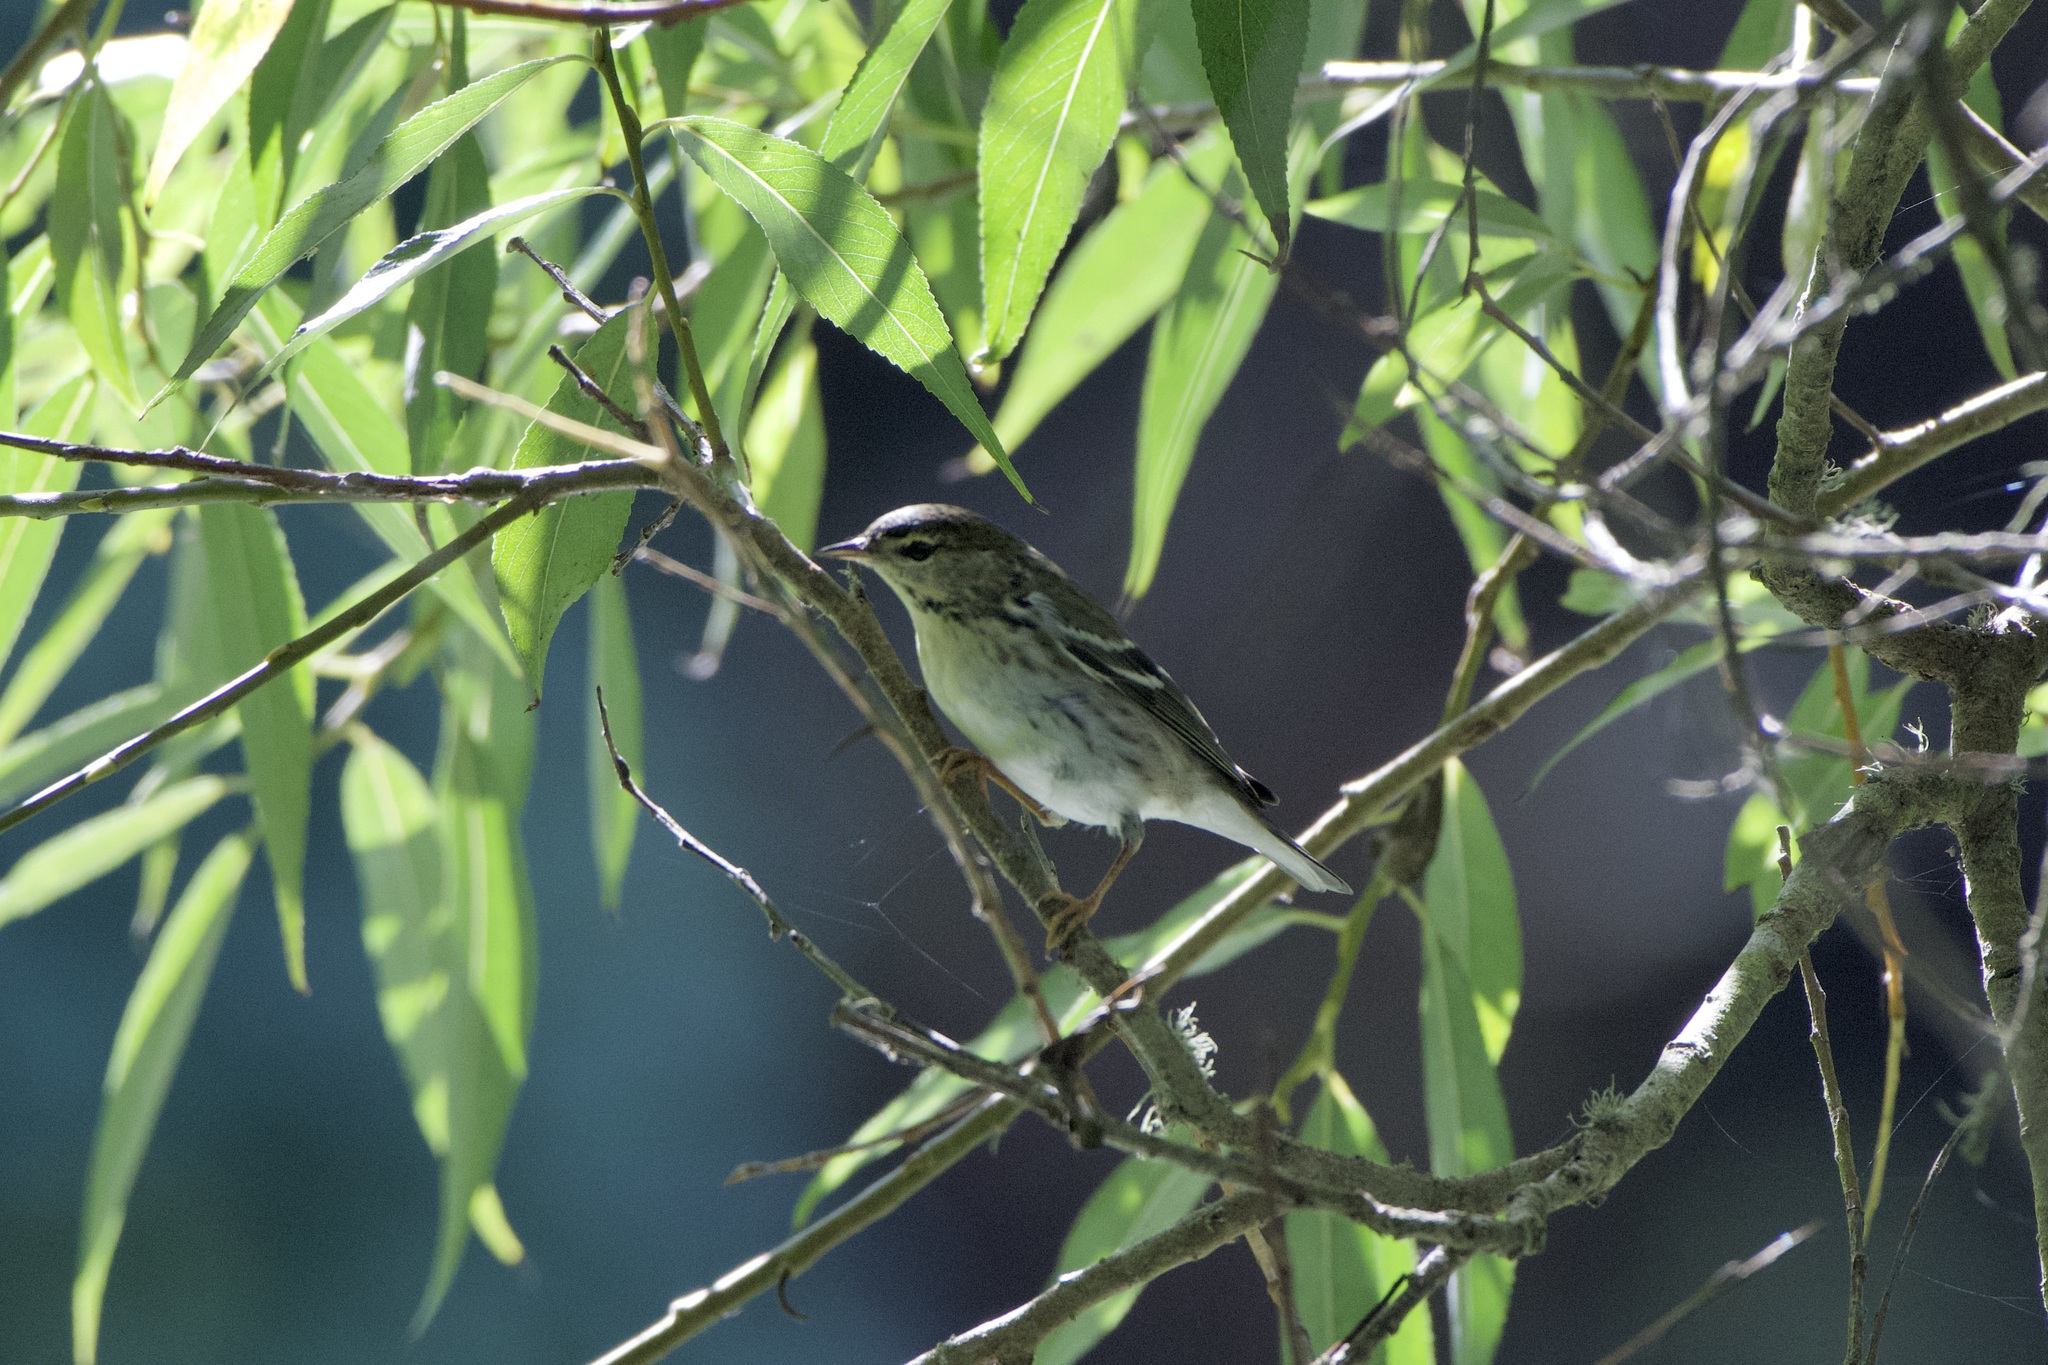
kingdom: Animalia
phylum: Chordata
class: Aves
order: Passeriformes
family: Parulidae
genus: Setophaga
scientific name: Setophaga striata
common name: Blackpoll warbler
